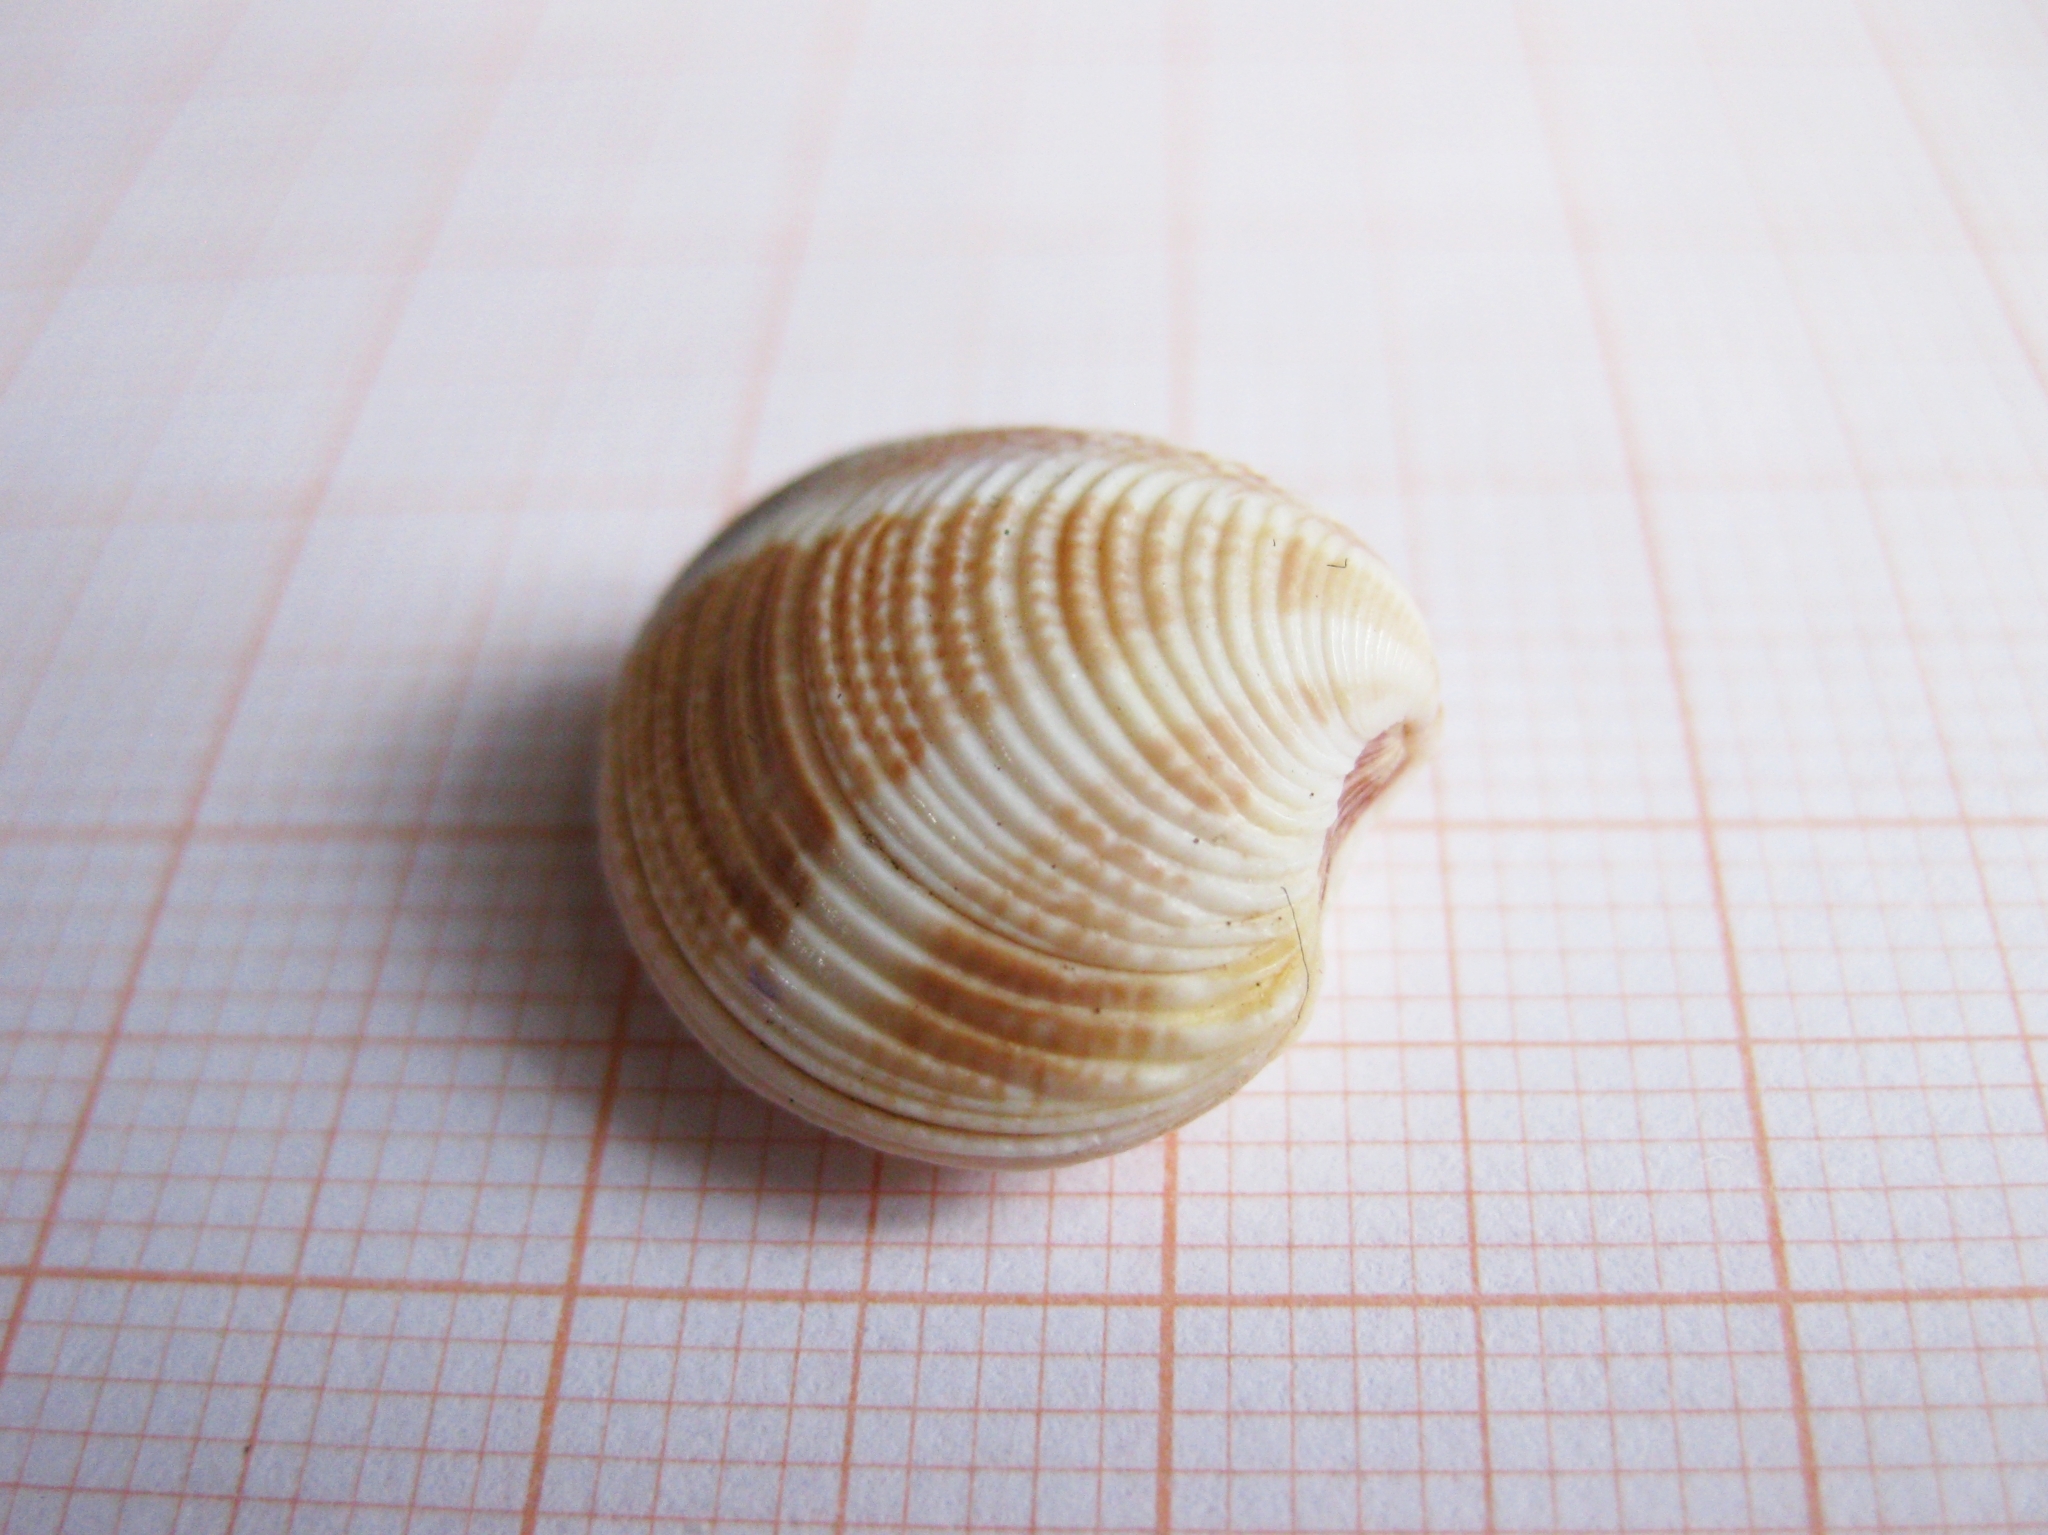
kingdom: Animalia
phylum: Mollusca
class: Bivalvia
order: Venerida
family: Veneridae
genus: Chamelea
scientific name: Chamelea gallina
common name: Chicken venus
